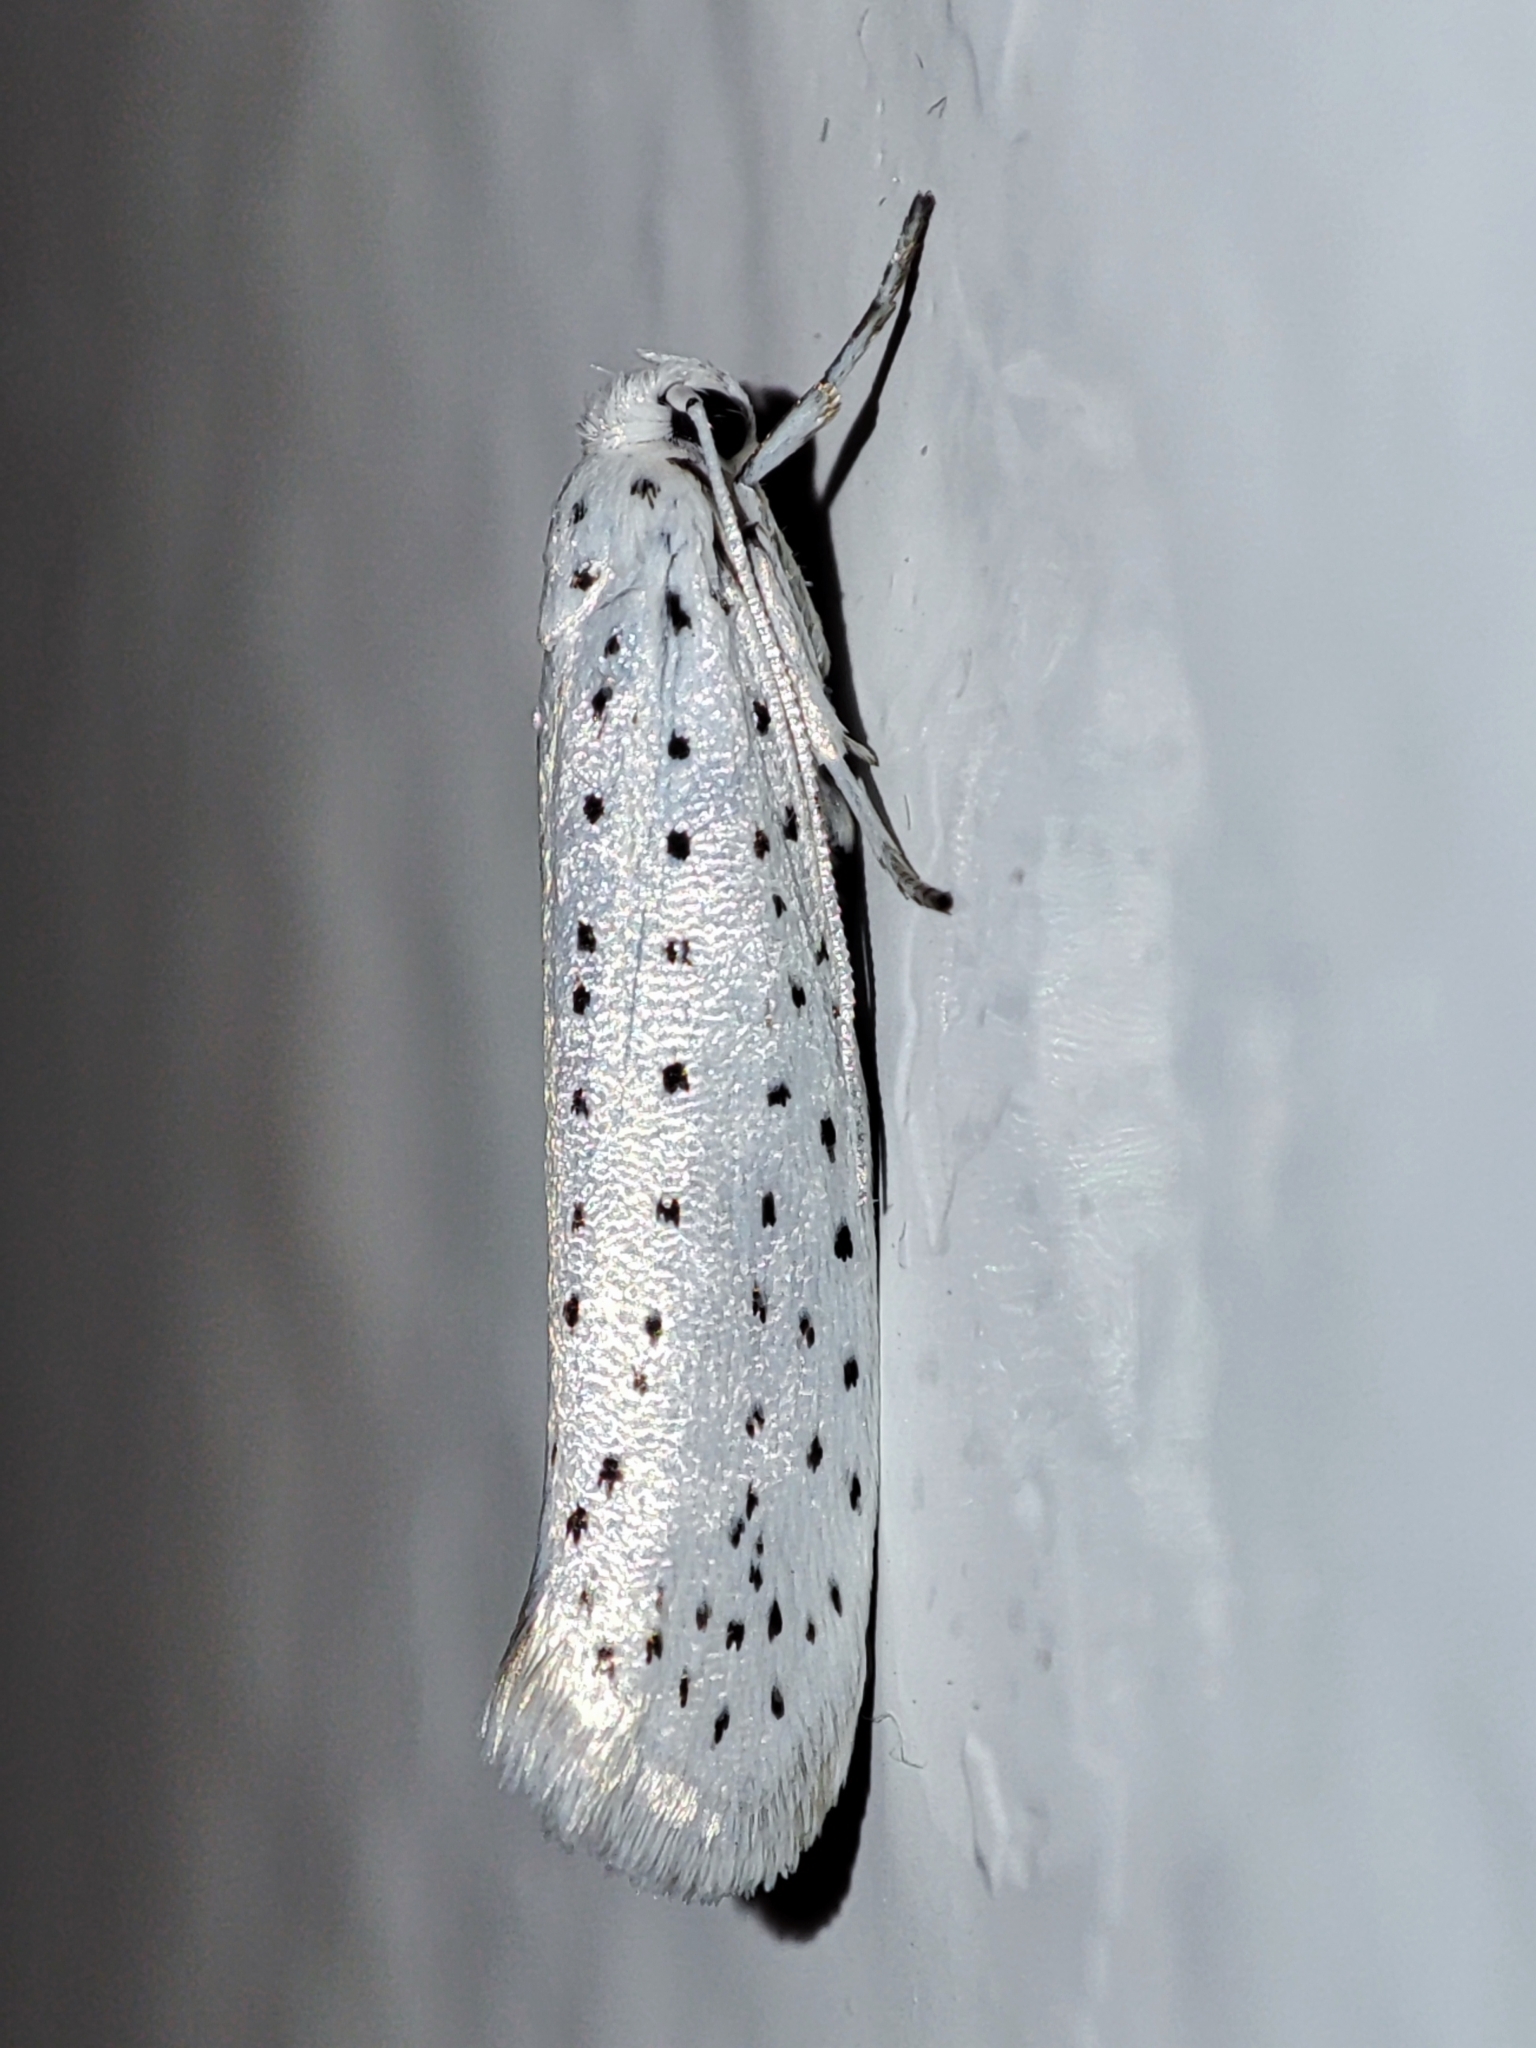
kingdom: Animalia
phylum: Arthropoda
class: Insecta
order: Lepidoptera
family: Yponomeutidae
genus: Yponomeuta
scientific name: Yponomeuta evonymella
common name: Bird-cherry ermine
